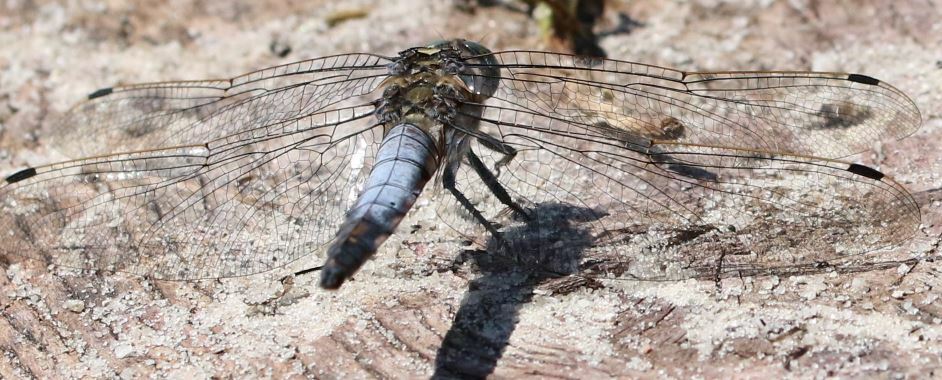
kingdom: Animalia
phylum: Arthropoda
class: Insecta
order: Odonata
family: Libellulidae
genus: Orthetrum
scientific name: Orthetrum cancellatum
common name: Black-tailed skimmer
